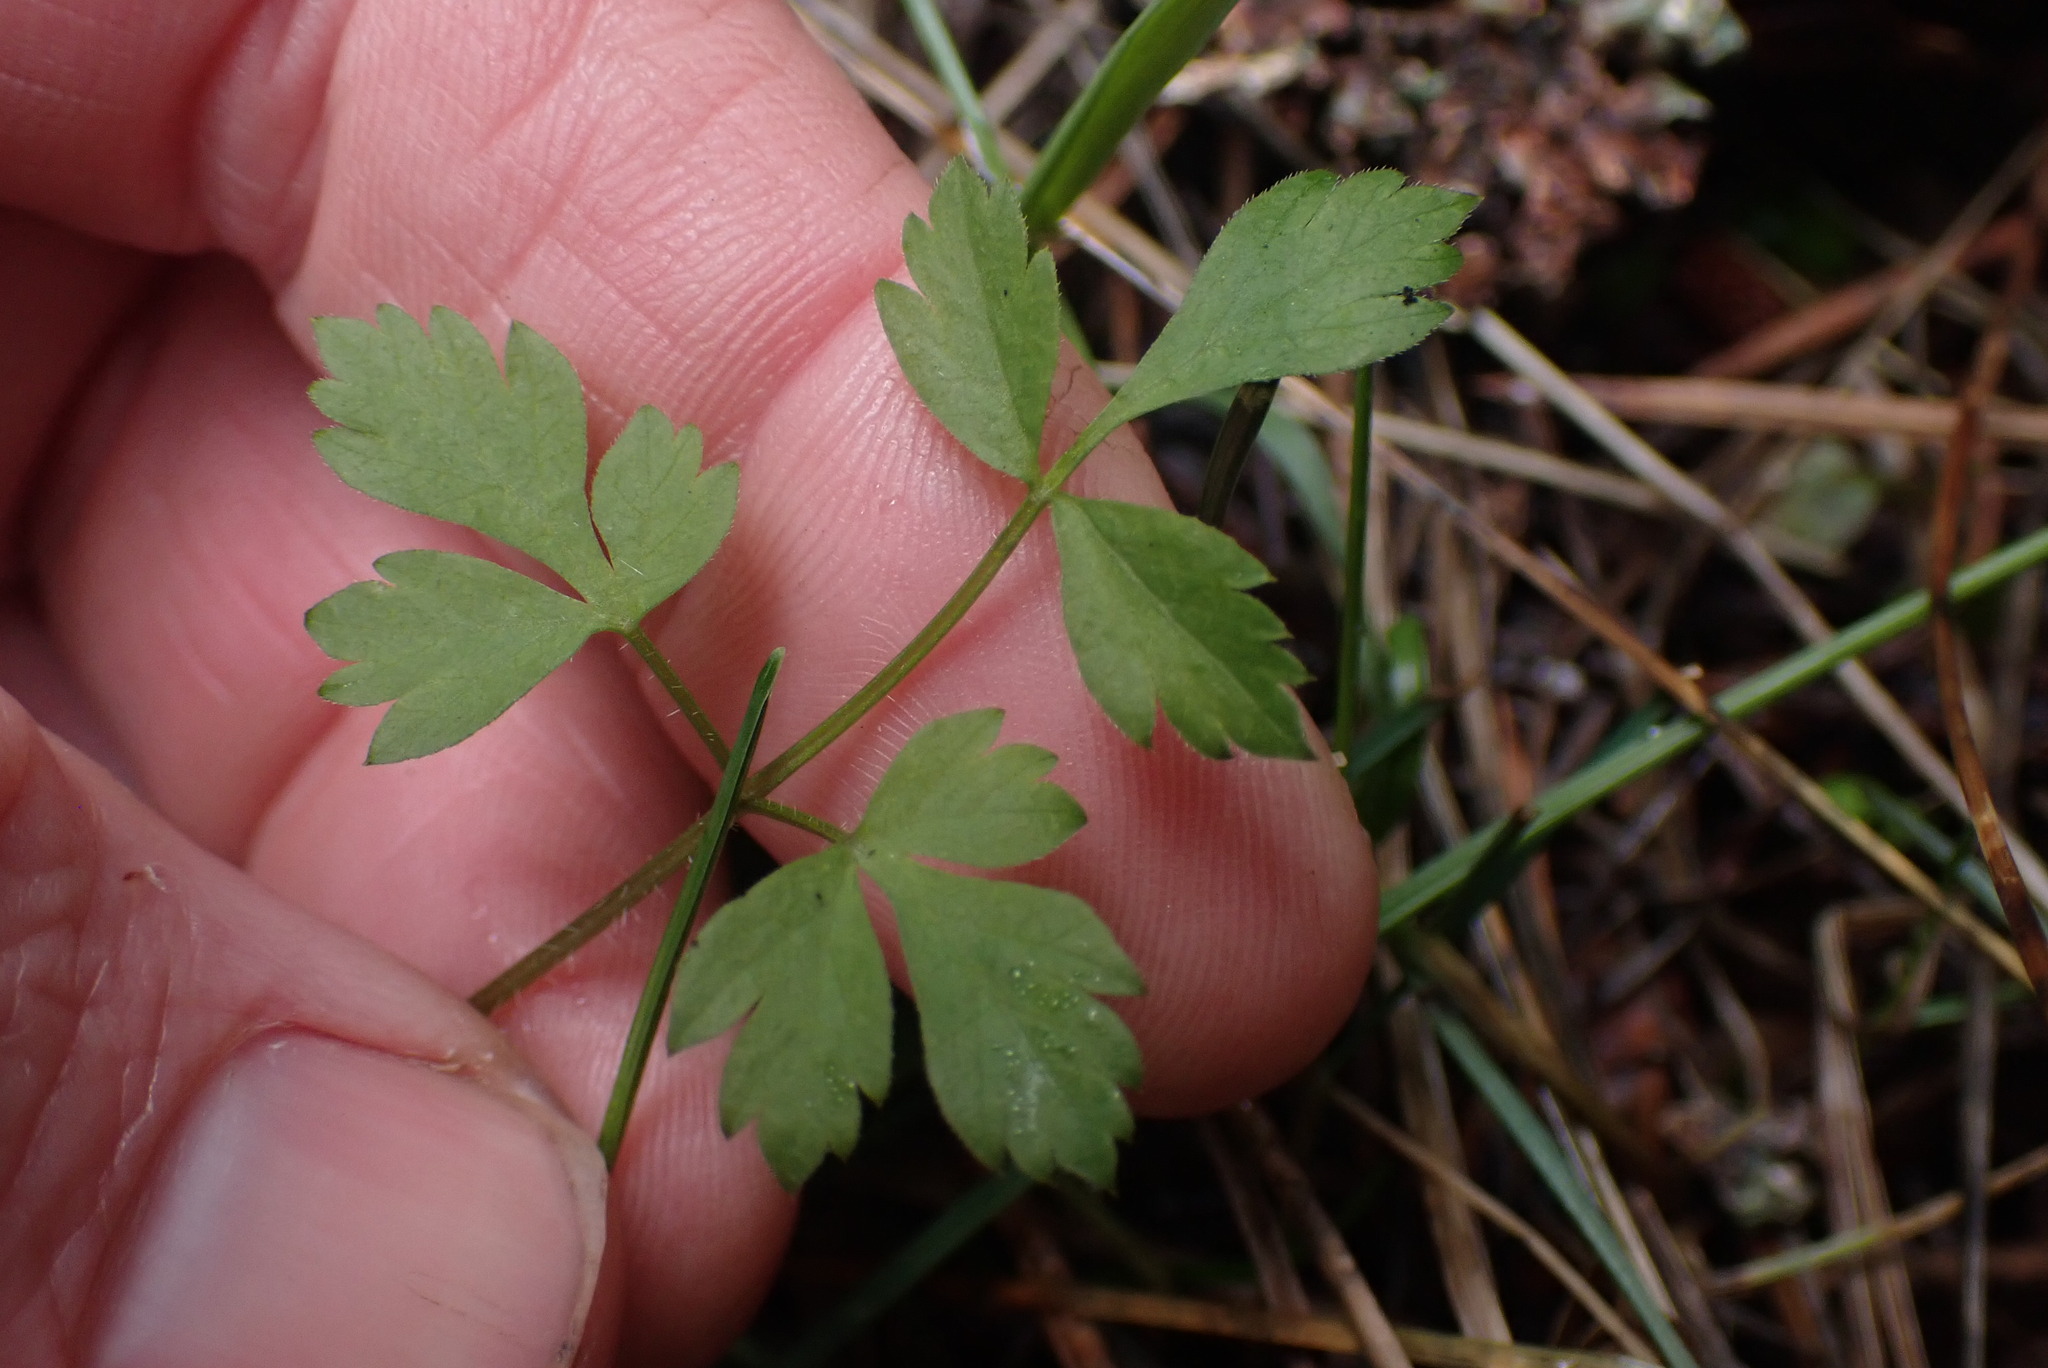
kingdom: Plantae
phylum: Tracheophyta
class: Magnoliopsida
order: Apiales
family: Apiaceae
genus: Osmorhiza
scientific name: Osmorhiza berteroi
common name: Mountain sweet cicely
